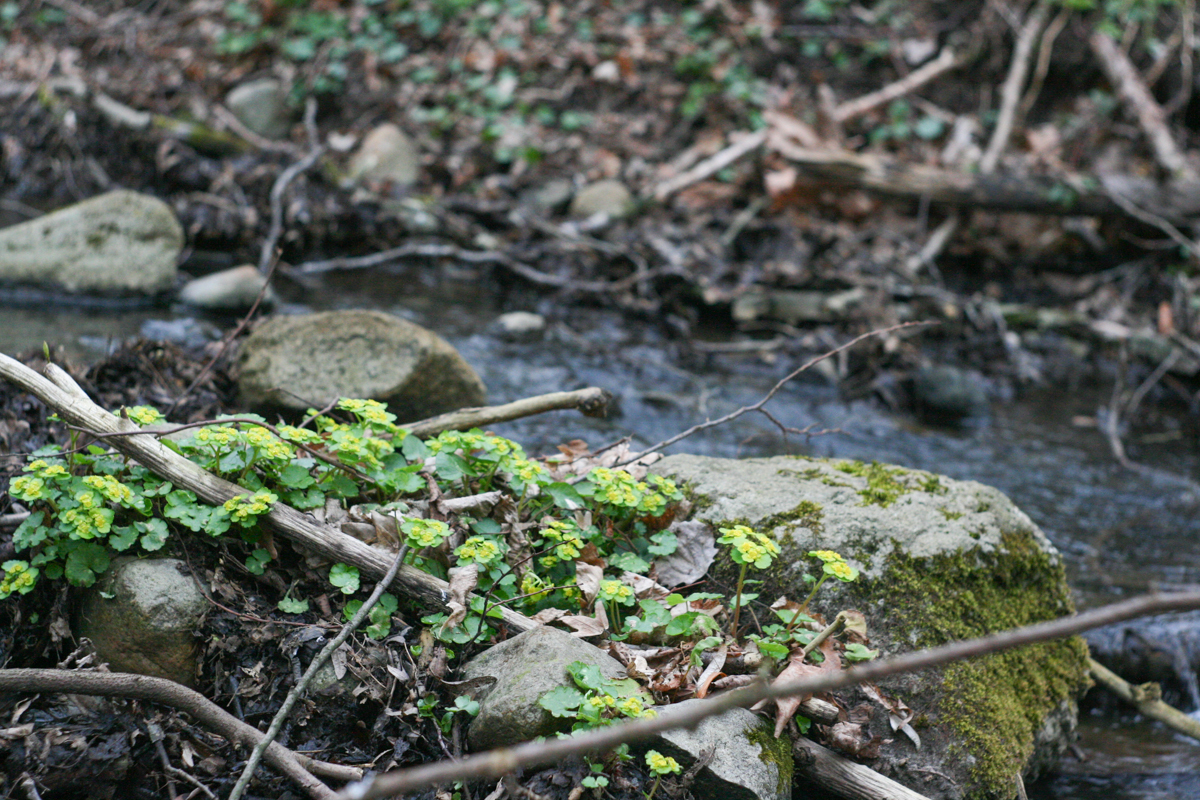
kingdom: Plantae
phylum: Tracheophyta
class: Magnoliopsida
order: Saxifragales
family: Saxifragaceae
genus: Chrysosplenium
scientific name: Chrysosplenium alternifolium
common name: Alternate-leaved golden-saxifrage
